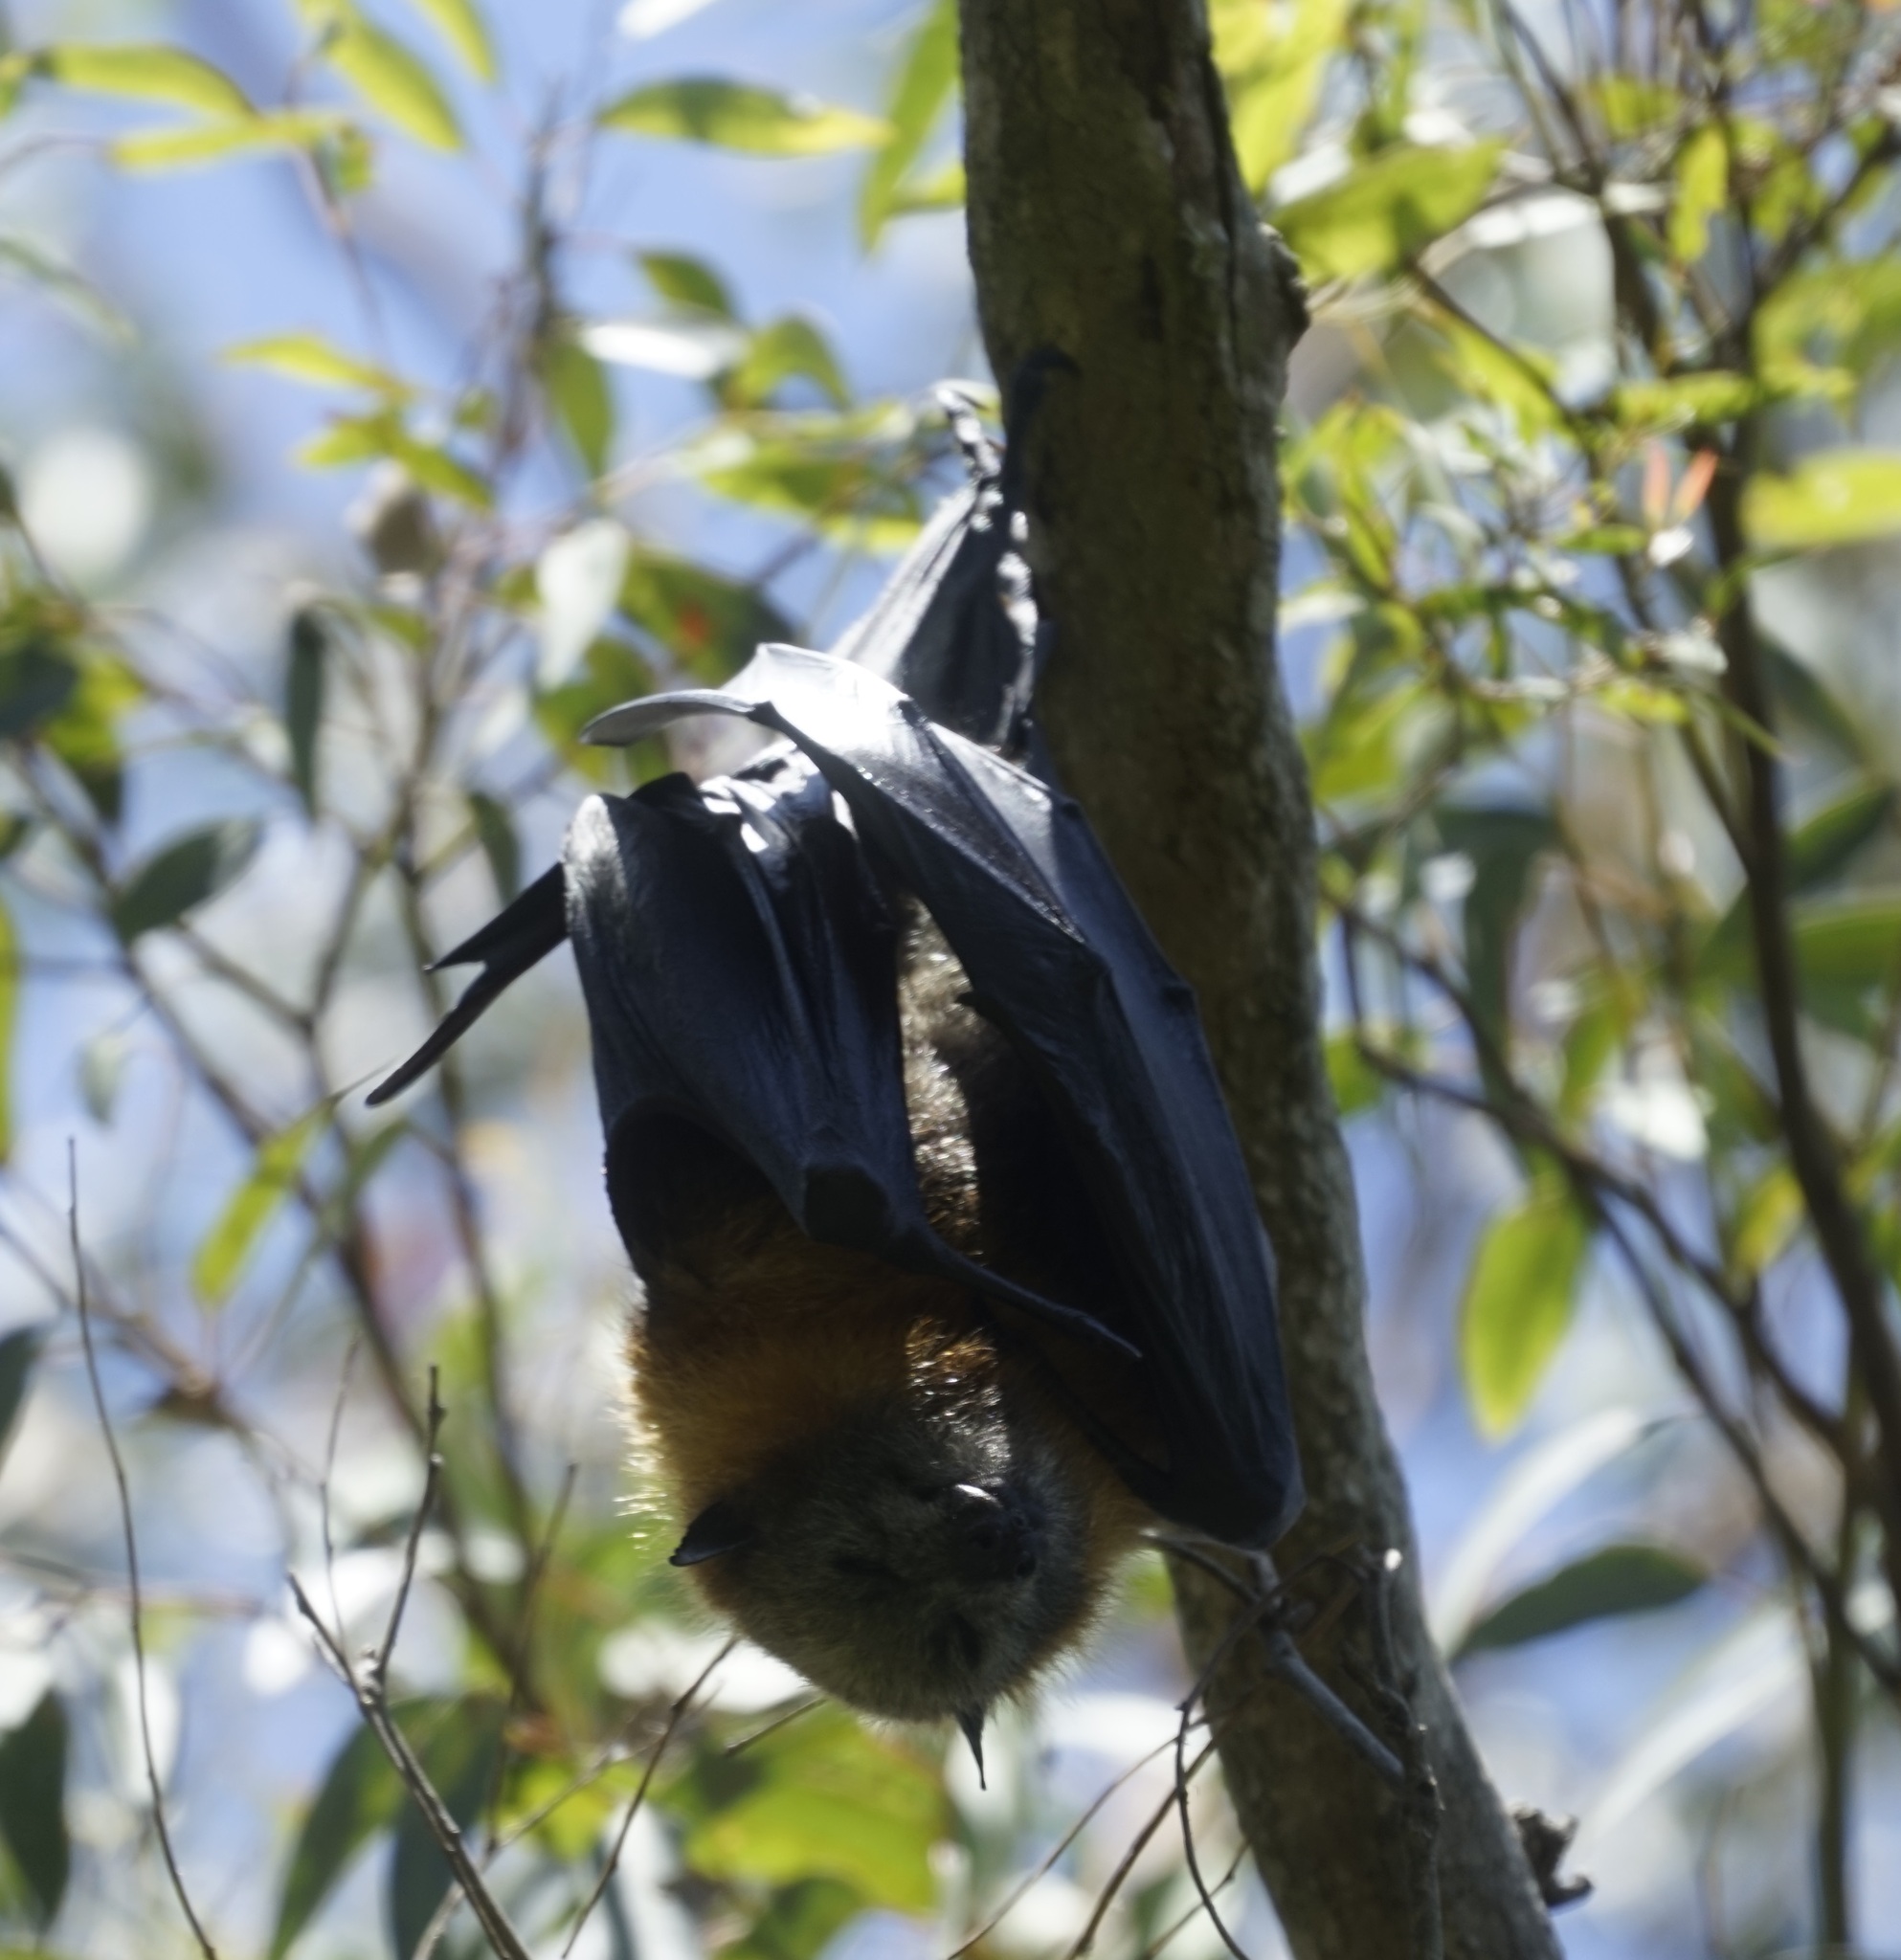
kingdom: Animalia
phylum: Chordata
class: Mammalia
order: Chiroptera
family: Pteropodidae
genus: Pteropus
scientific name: Pteropus poliocephalus
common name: Gray-headed flying fox
